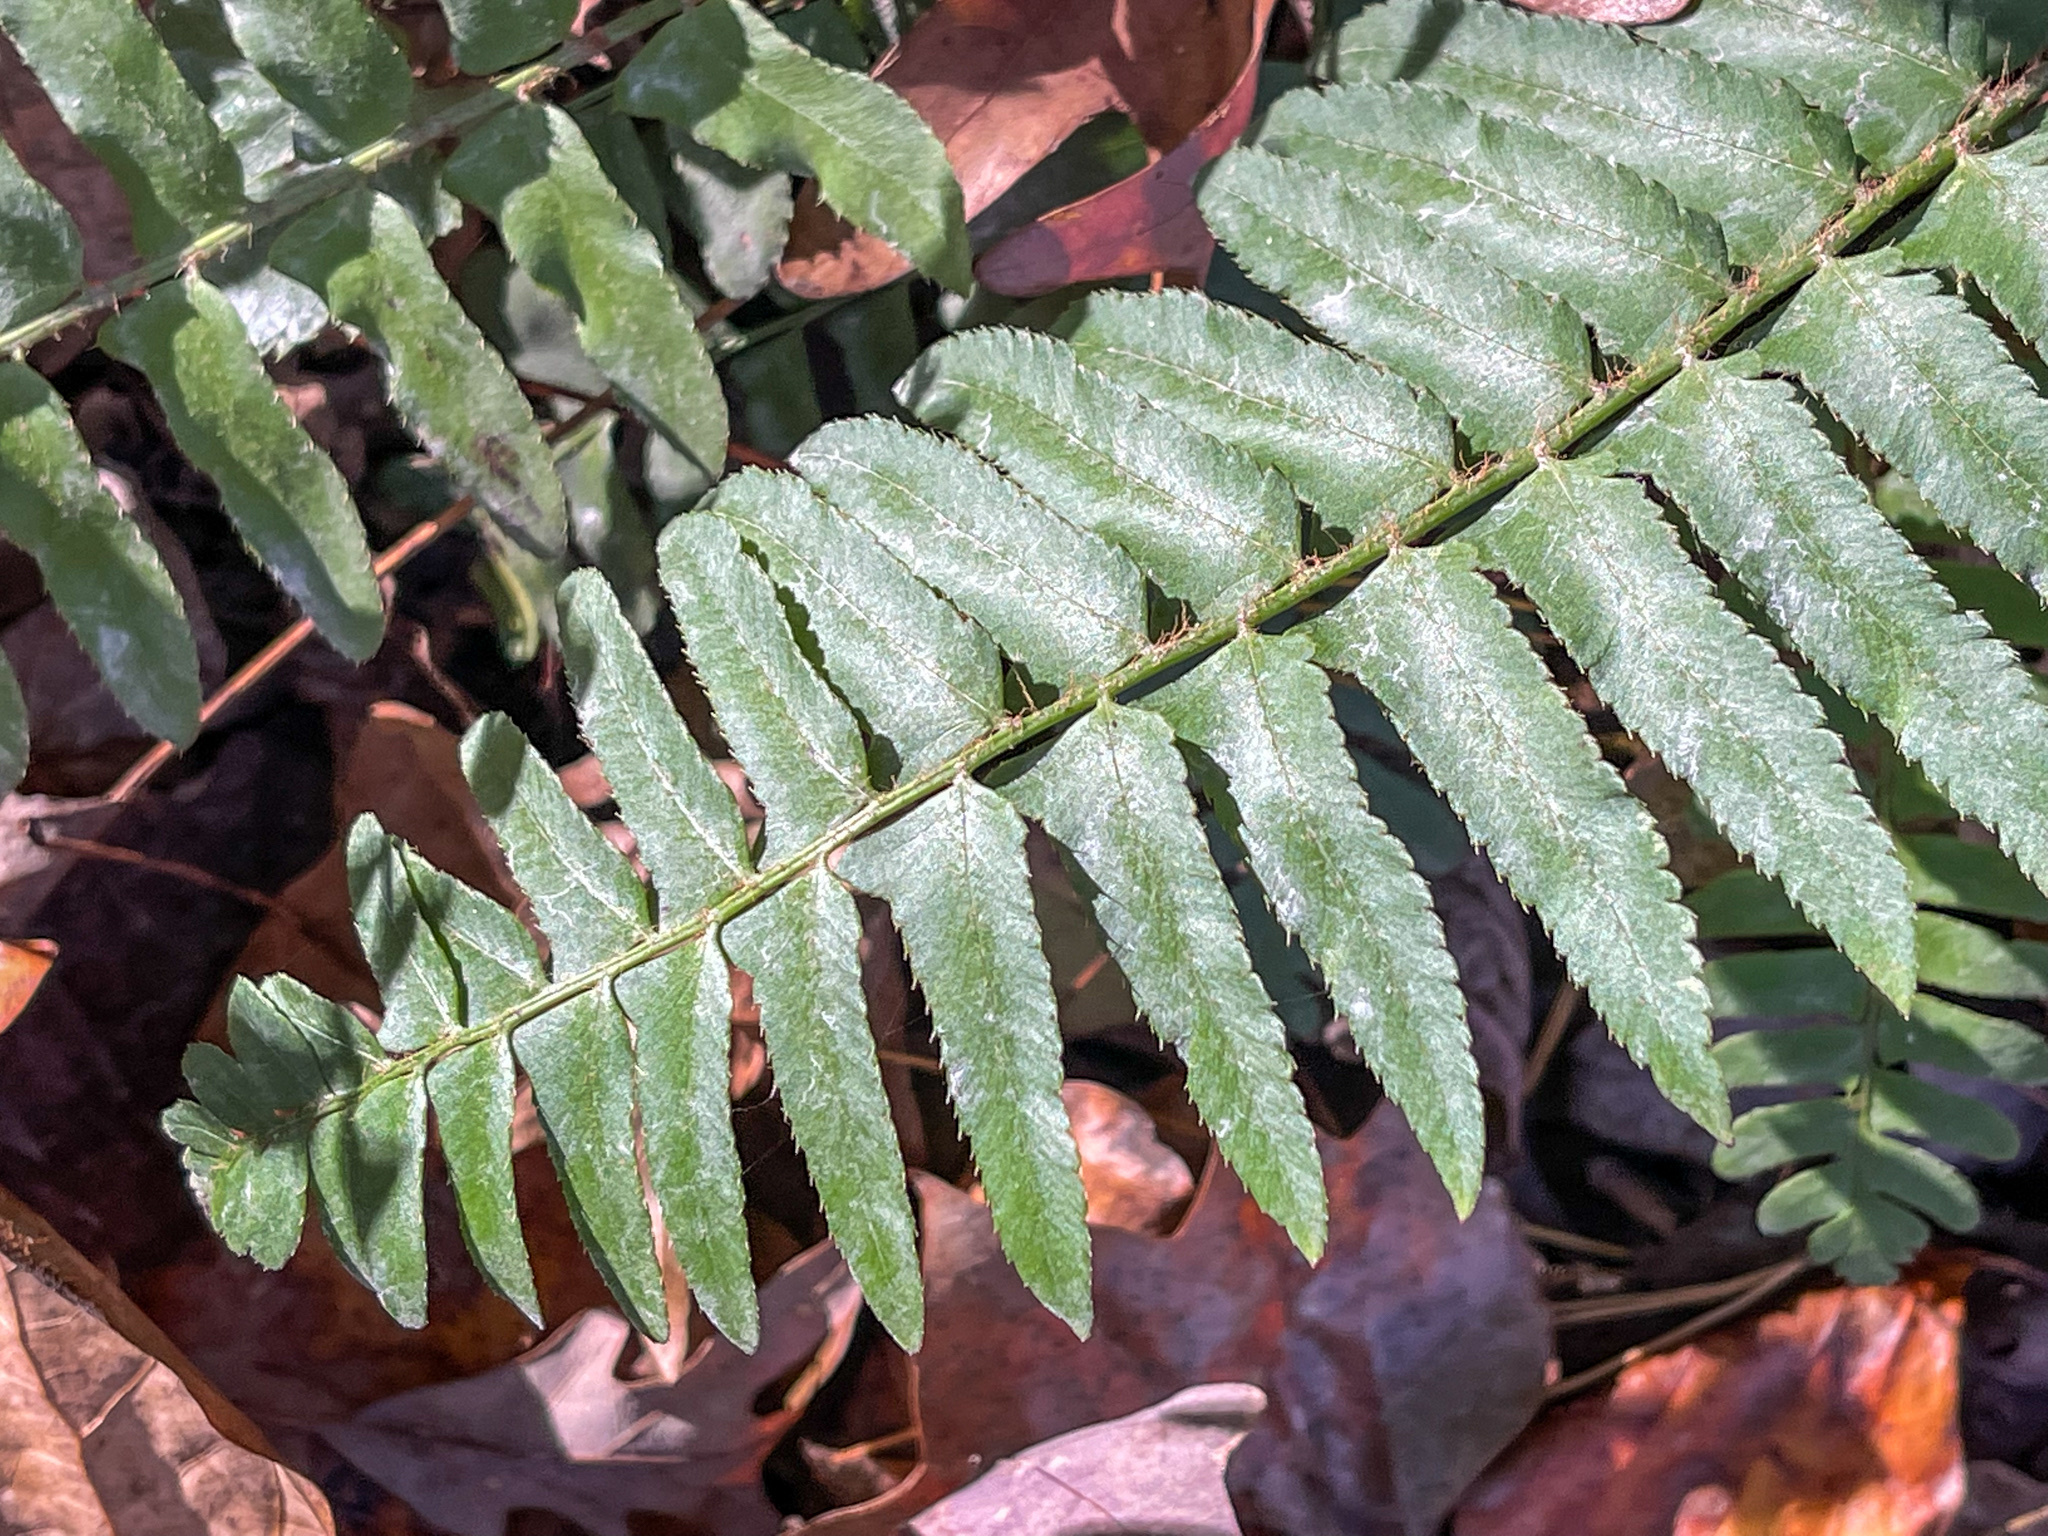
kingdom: Plantae
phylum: Tracheophyta
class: Polypodiopsida
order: Polypodiales
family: Dryopteridaceae
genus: Polystichum
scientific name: Polystichum acrostichoides
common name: Christmas fern
